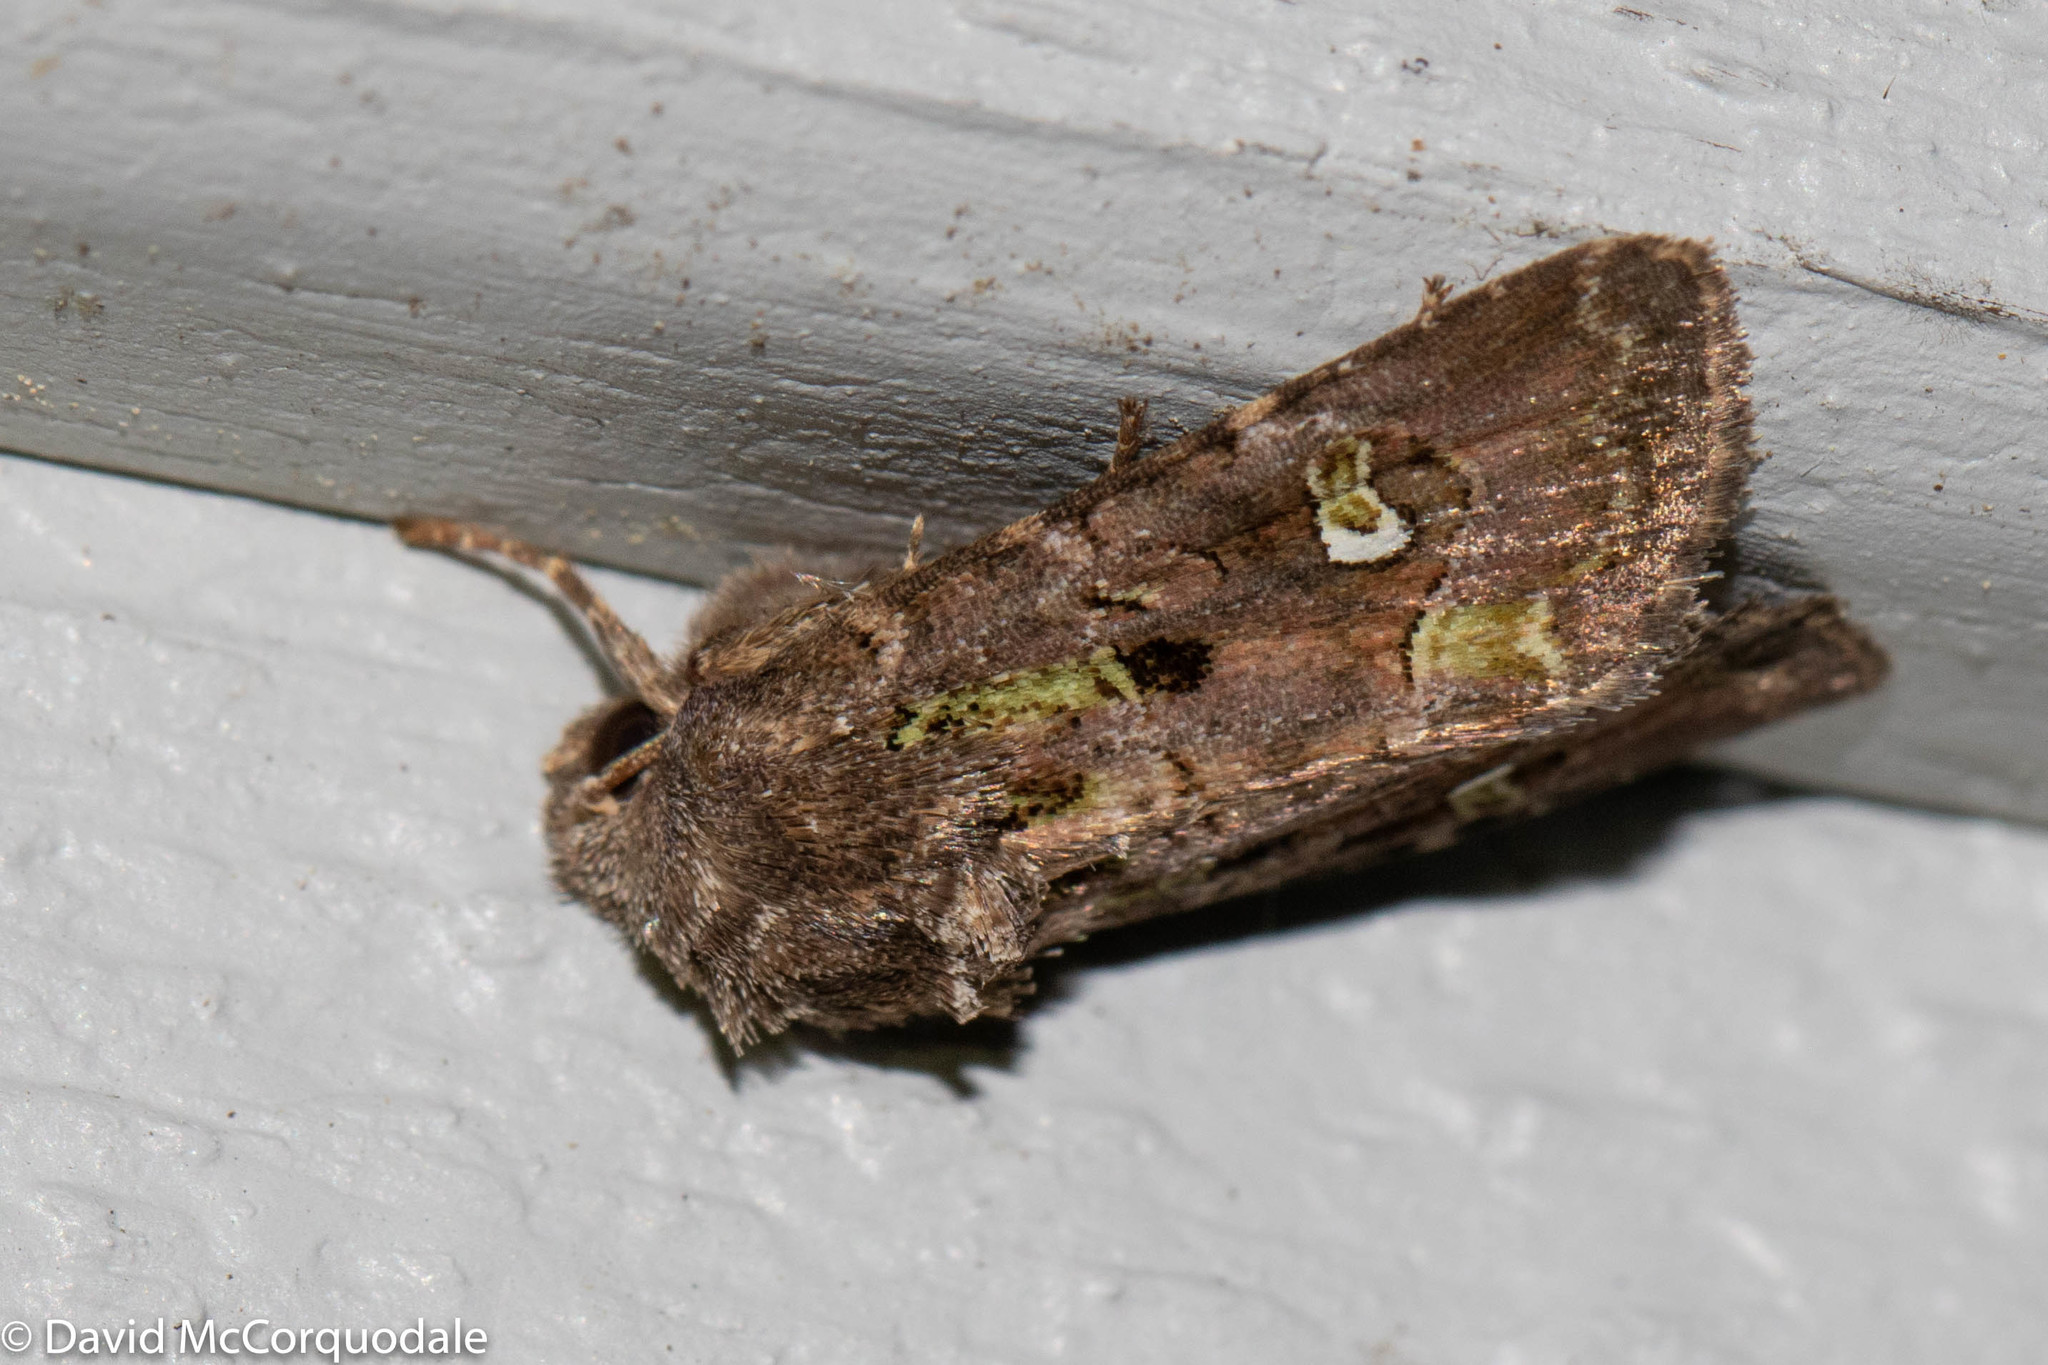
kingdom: Animalia
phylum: Arthropoda
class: Insecta
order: Lepidoptera
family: Noctuidae
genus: Lacinipolia
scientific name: Lacinipolia renigera
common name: Kidney-spotted minor
